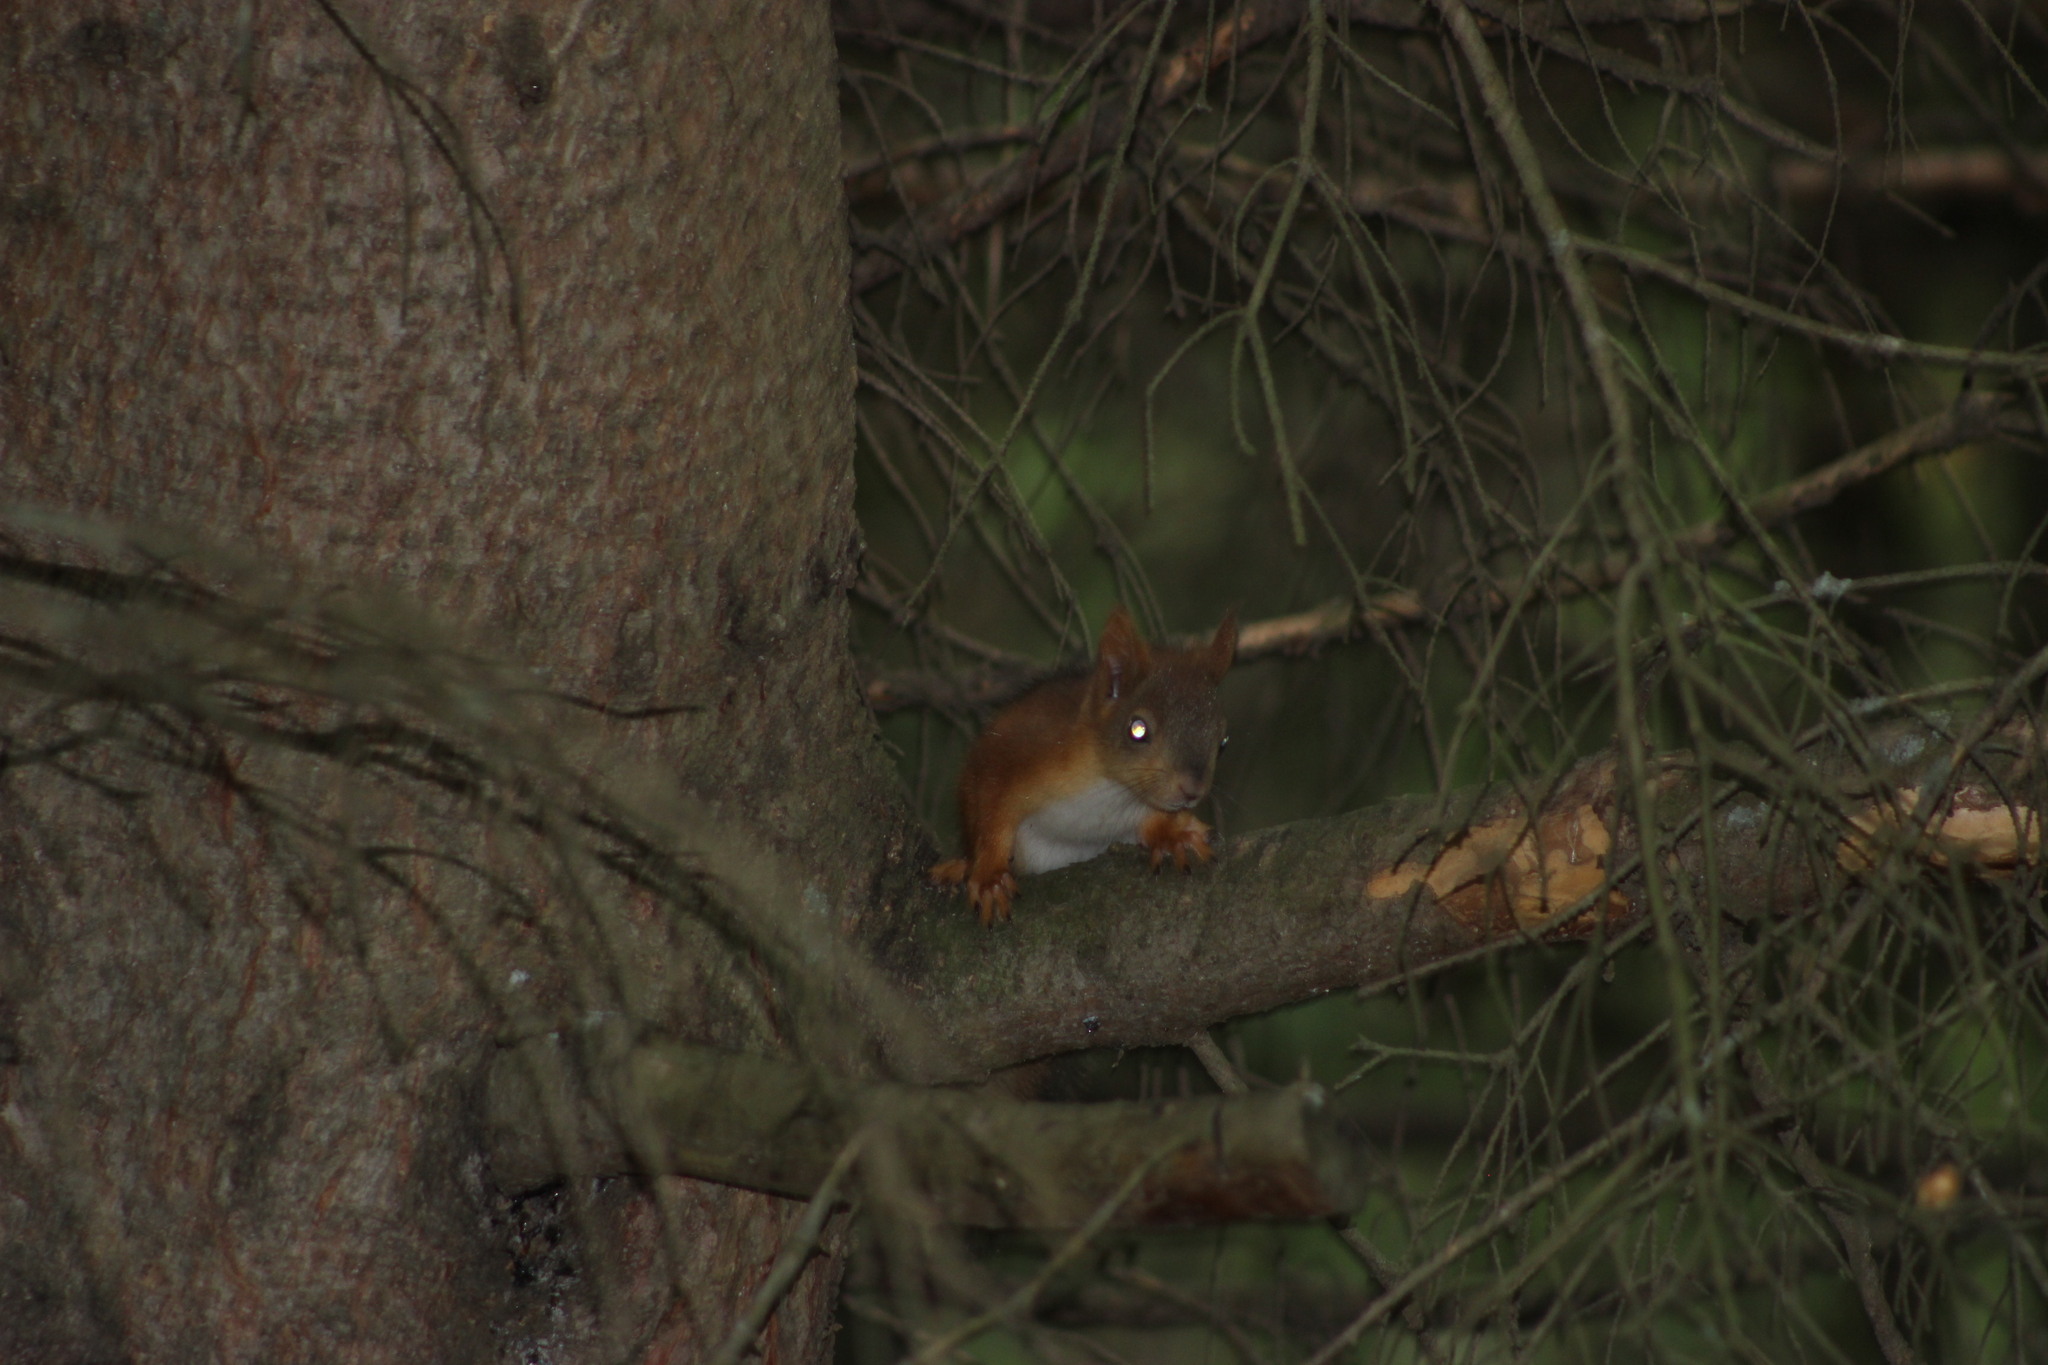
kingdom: Animalia
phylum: Chordata
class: Mammalia
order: Rodentia
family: Sciuridae
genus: Sciurus
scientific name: Sciurus vulgaris
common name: Eurasian red squirrel
